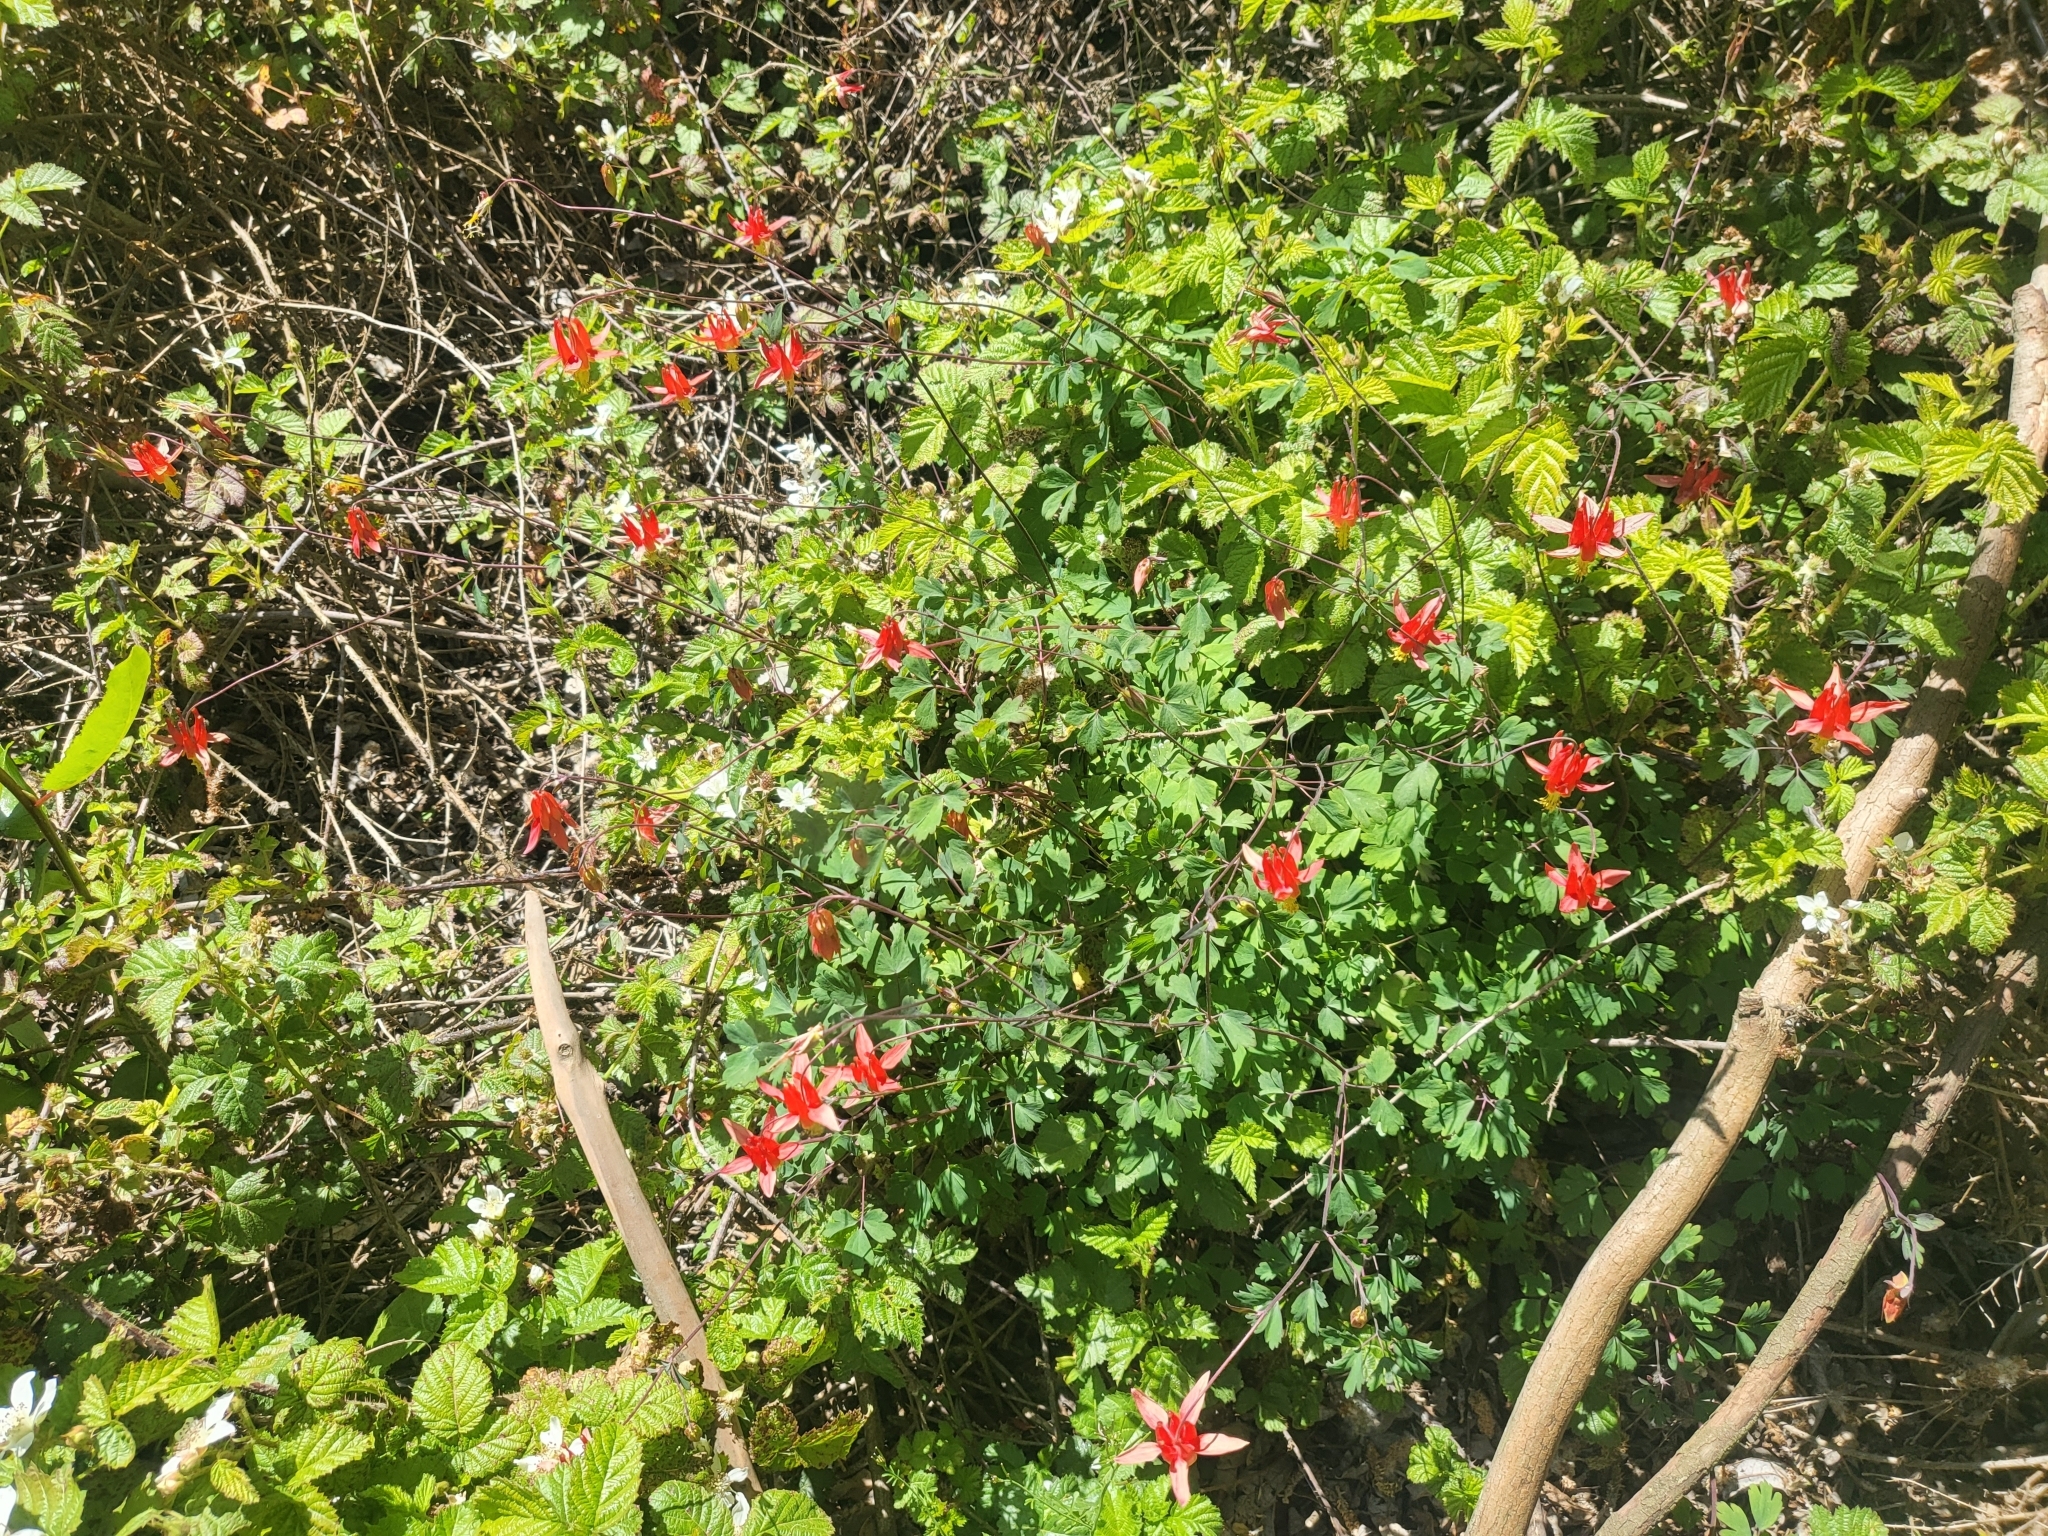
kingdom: Plantae
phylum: Tracheophyta
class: Magnoliopsida
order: Ranunculales
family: Ranunculaceae
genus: Aquilegia
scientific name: Aquilegia formosa
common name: Sitka columbine
